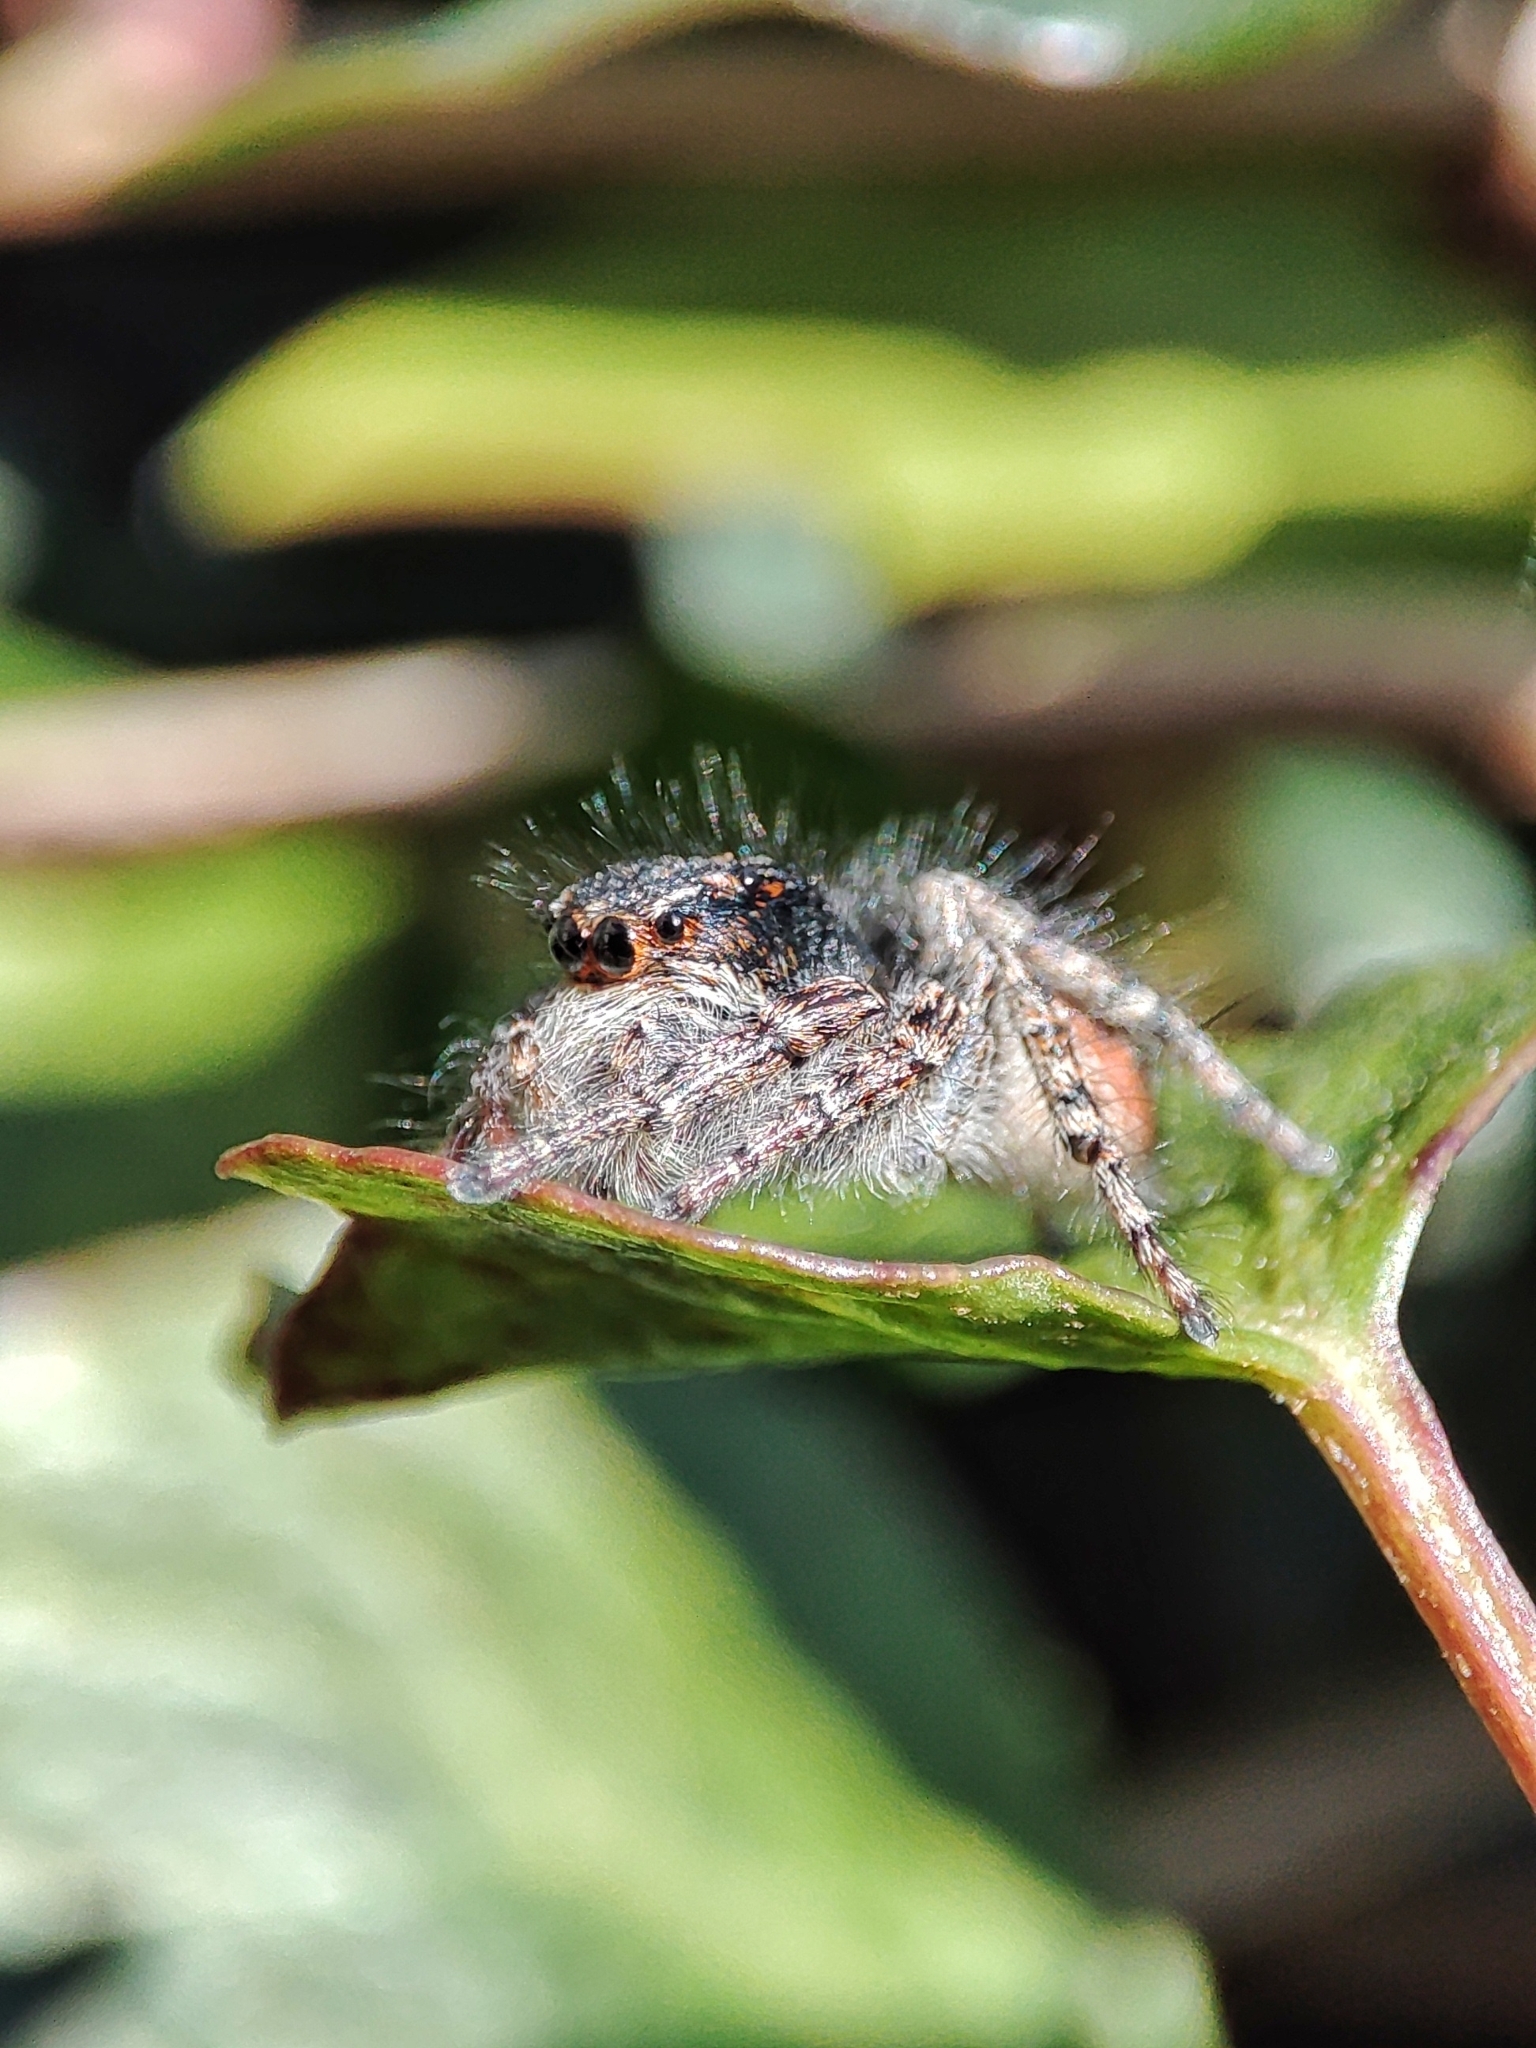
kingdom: Animalia
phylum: Arthropoda
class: Arachnida
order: Araneae
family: Salticidae
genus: Philaeus
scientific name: Philaeus chrysops
